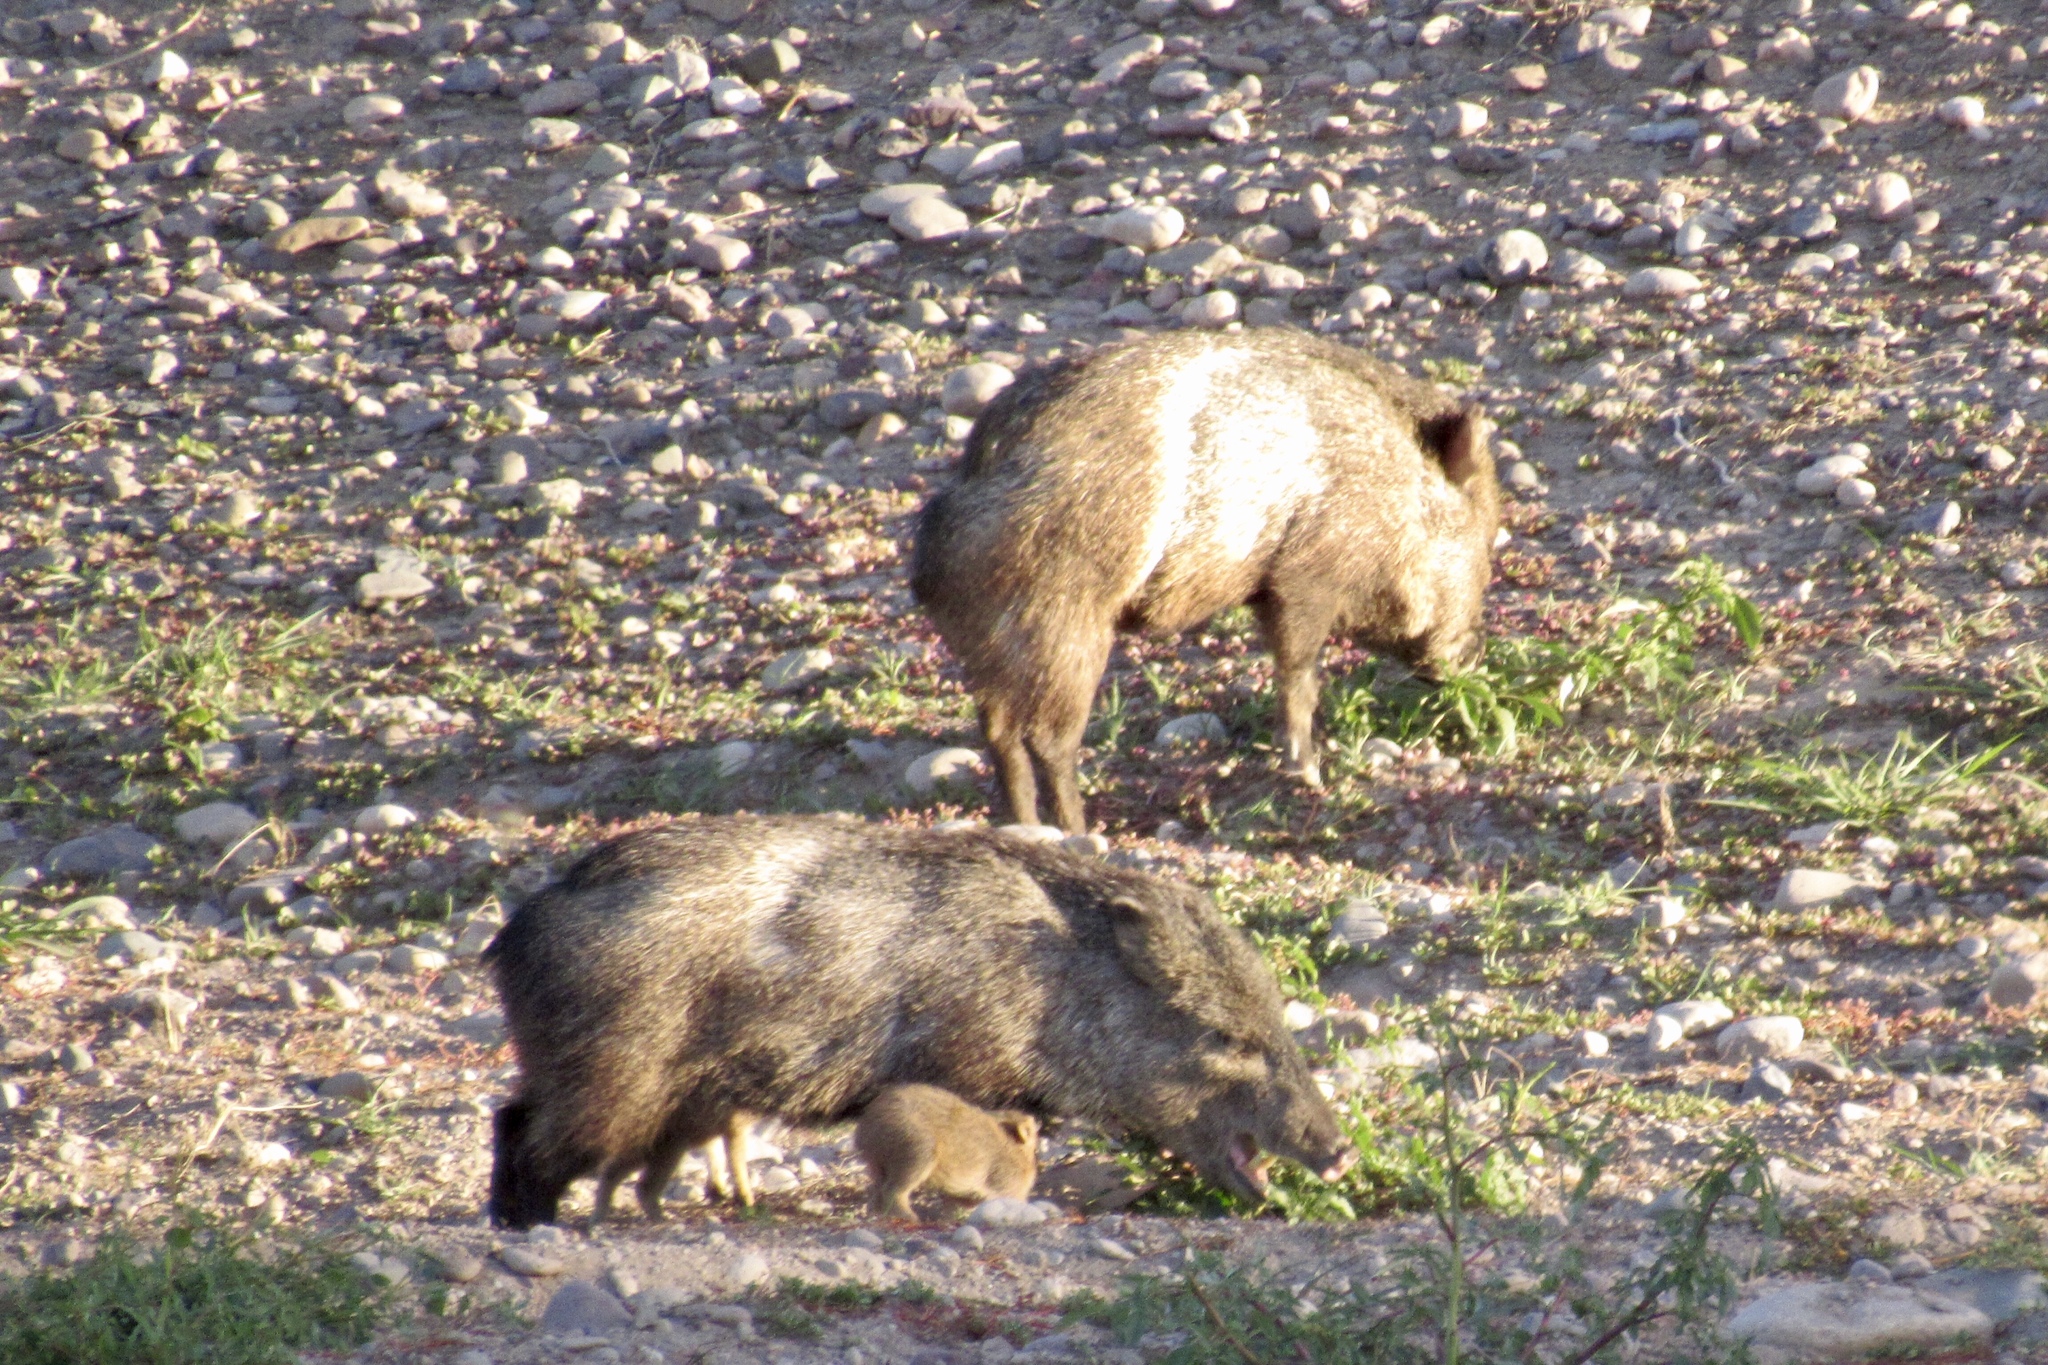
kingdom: Animalia
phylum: Chordata
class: Mammalia
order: Artiodactyla
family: Tayassuidae
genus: Pecari
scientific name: Pecari tajacu
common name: Collared peccary
